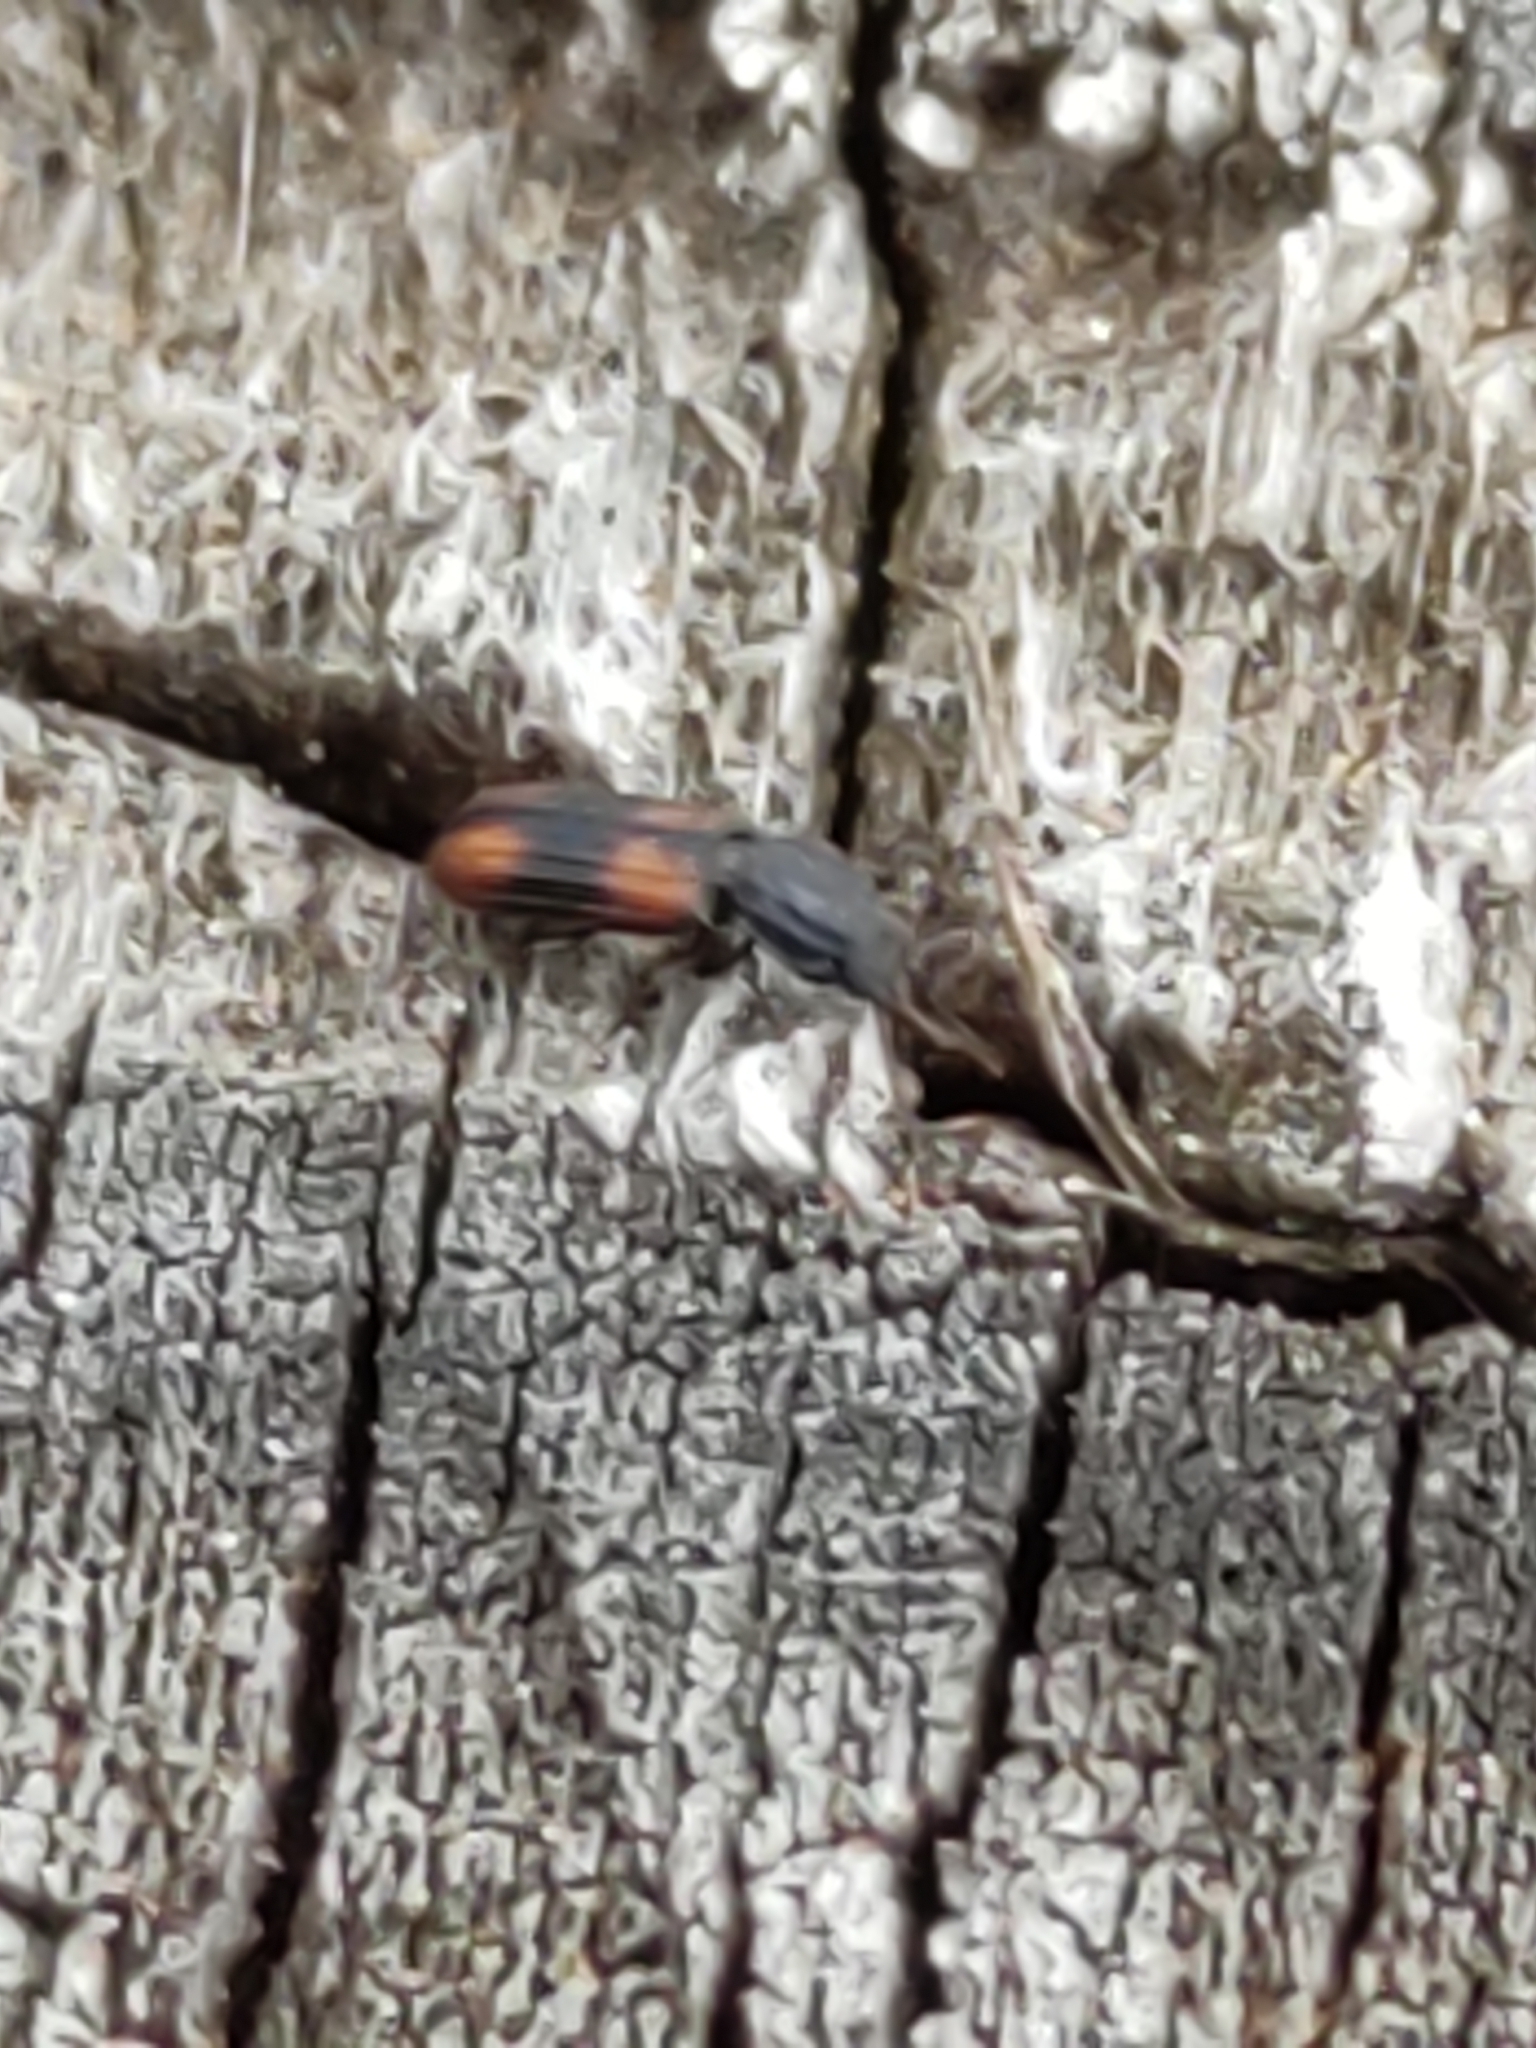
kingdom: Animalia
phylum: Arthropoda
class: Insecta
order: Coleoptera
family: Zopheridae
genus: Bitoma
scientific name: Bitoma crenata
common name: Bark beetle
